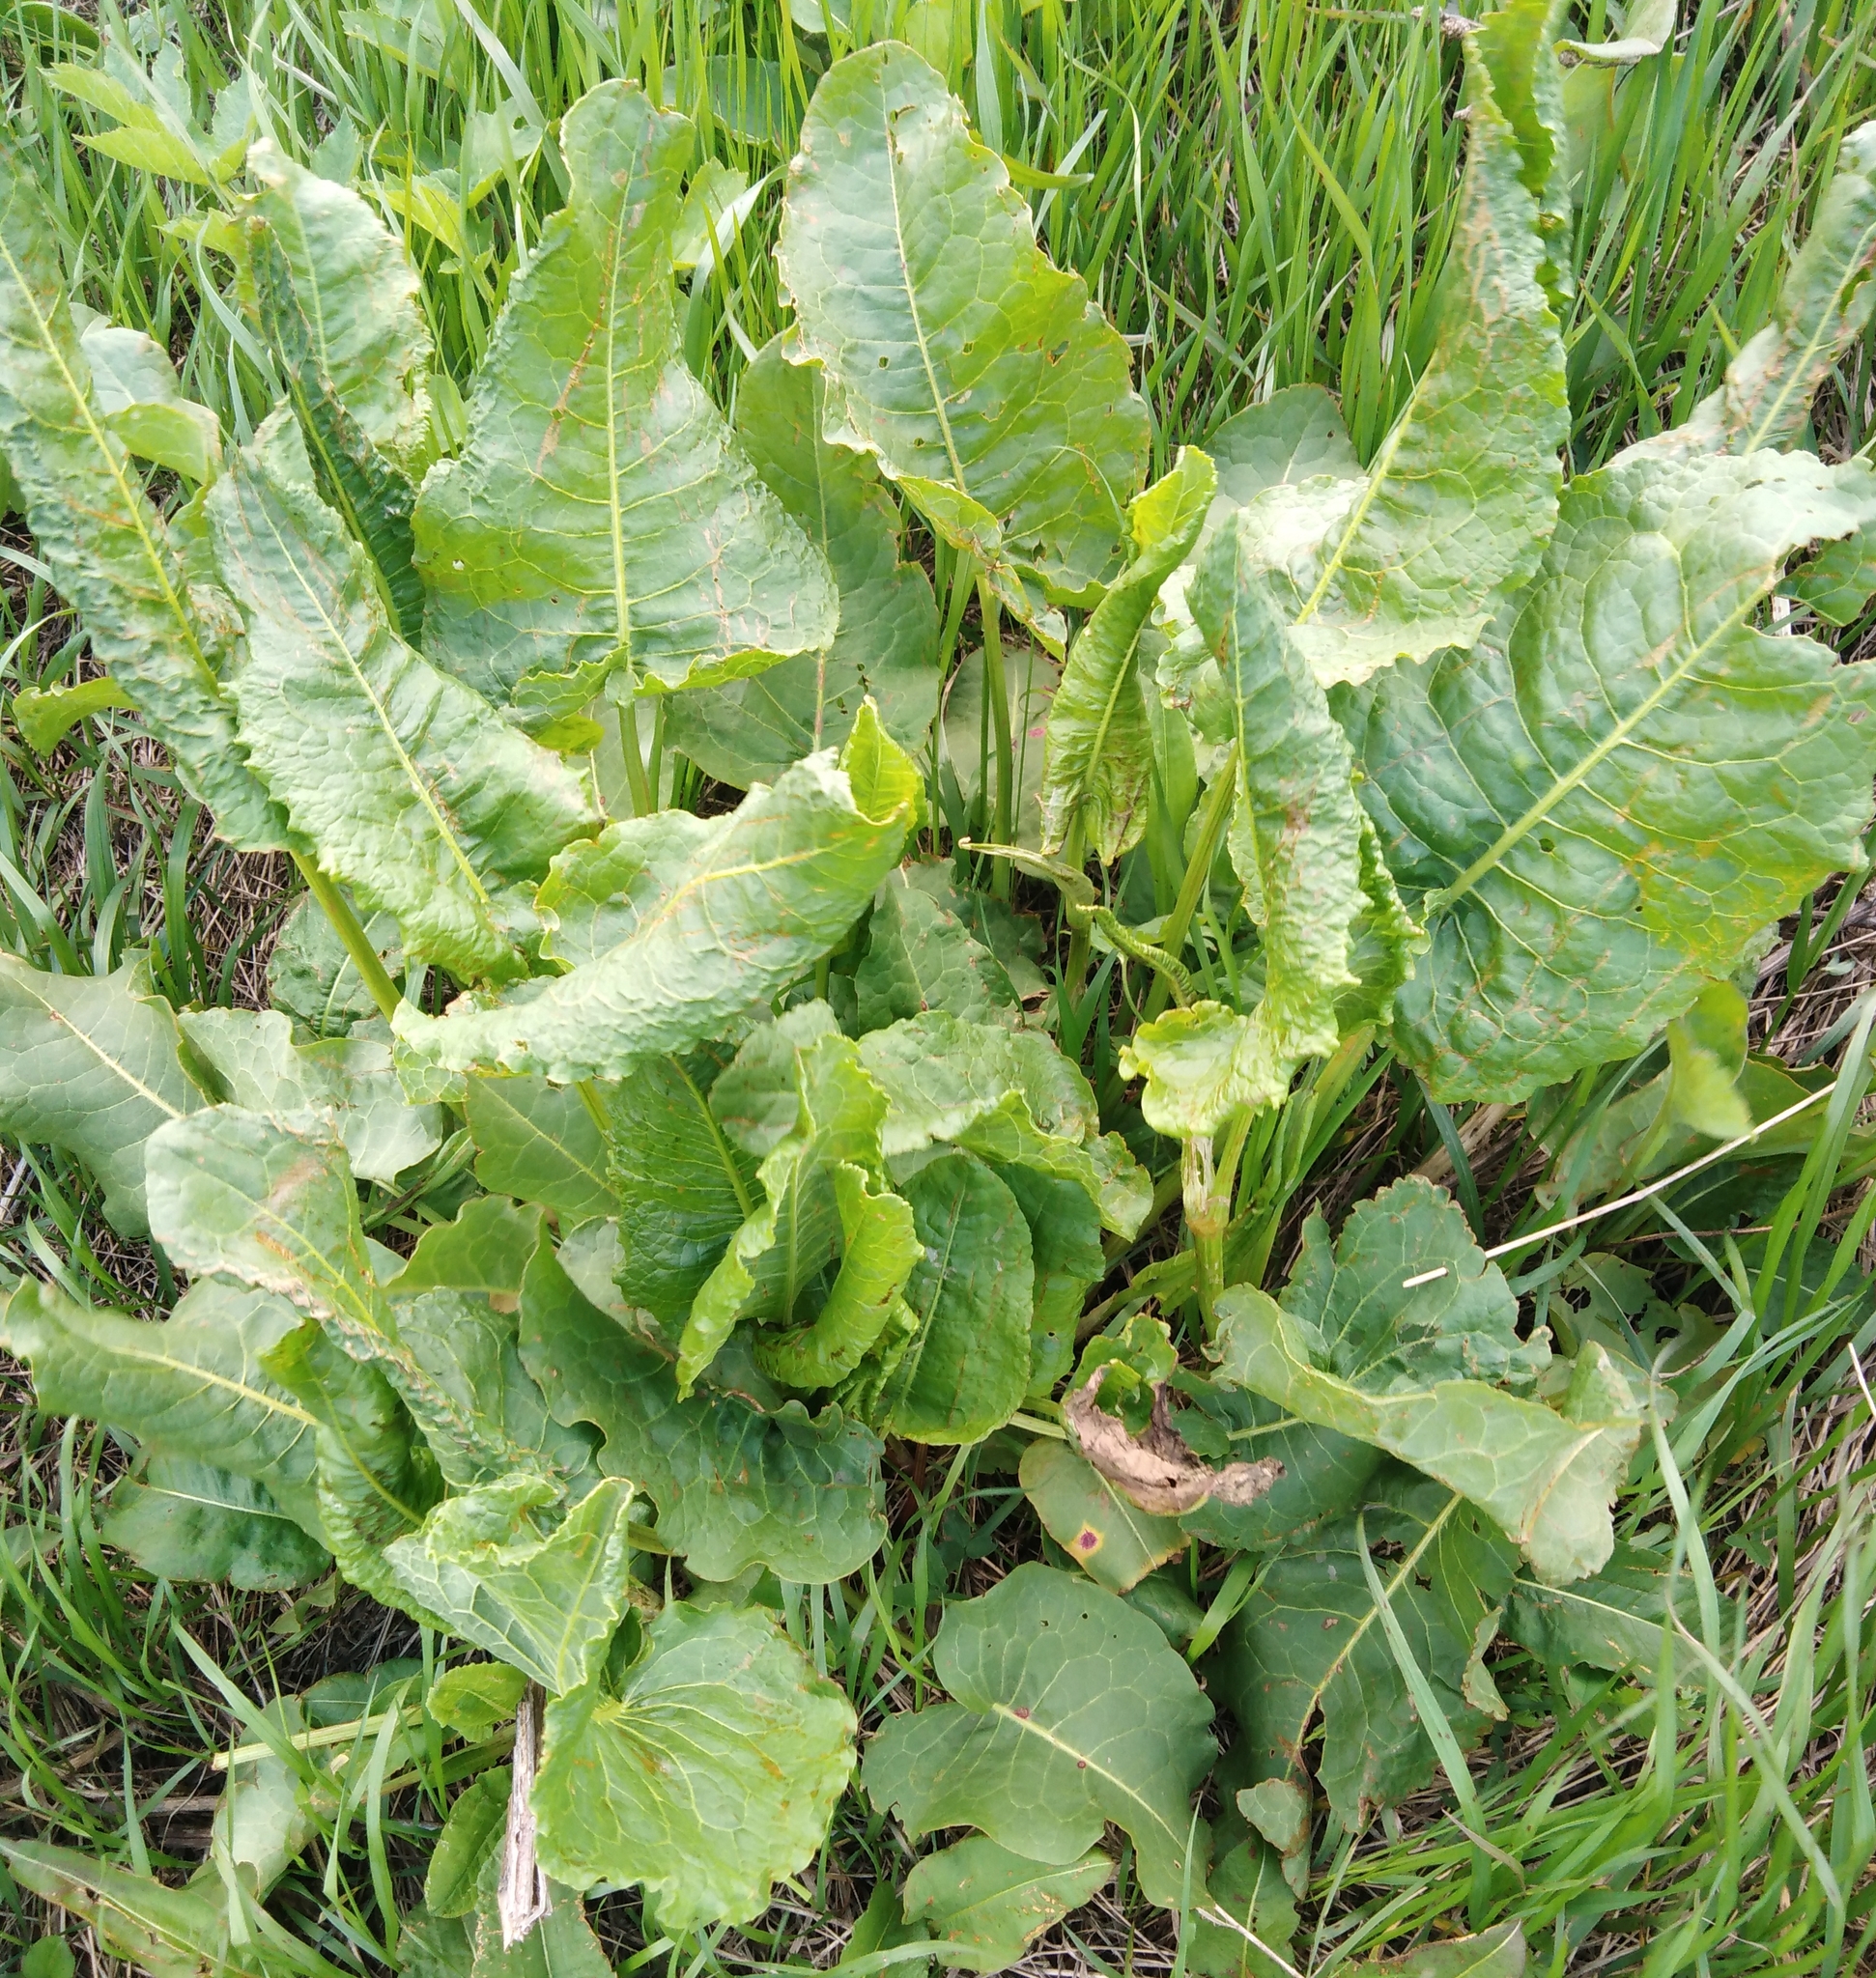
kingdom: Plantae
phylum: Tracheophyta
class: Magnoliopsida
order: Caryophyllales
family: Polygonaceae
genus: Rumex
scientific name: Rumex confertus
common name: Russian dock
